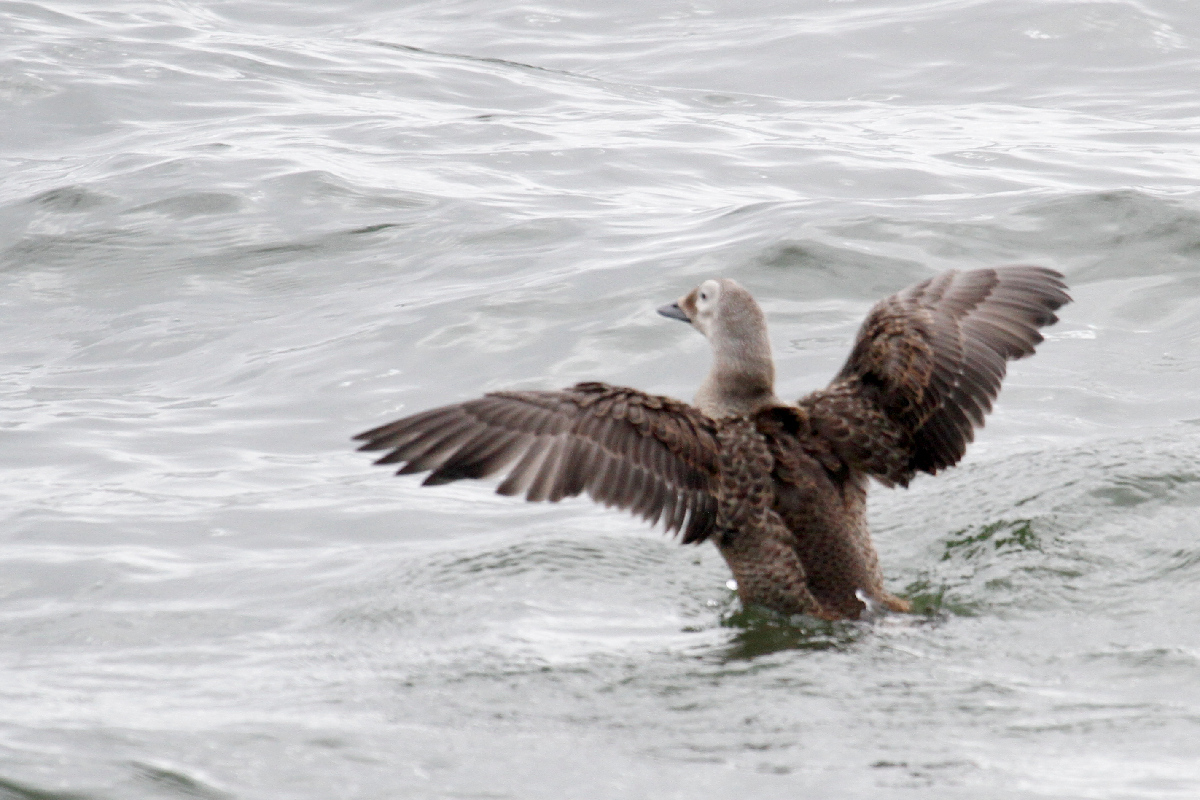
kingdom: Animalia
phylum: Chordata
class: Aves
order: Anseriformes
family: Anatidae
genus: Somateria
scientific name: Somateria fischeri
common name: Spectacled eider
